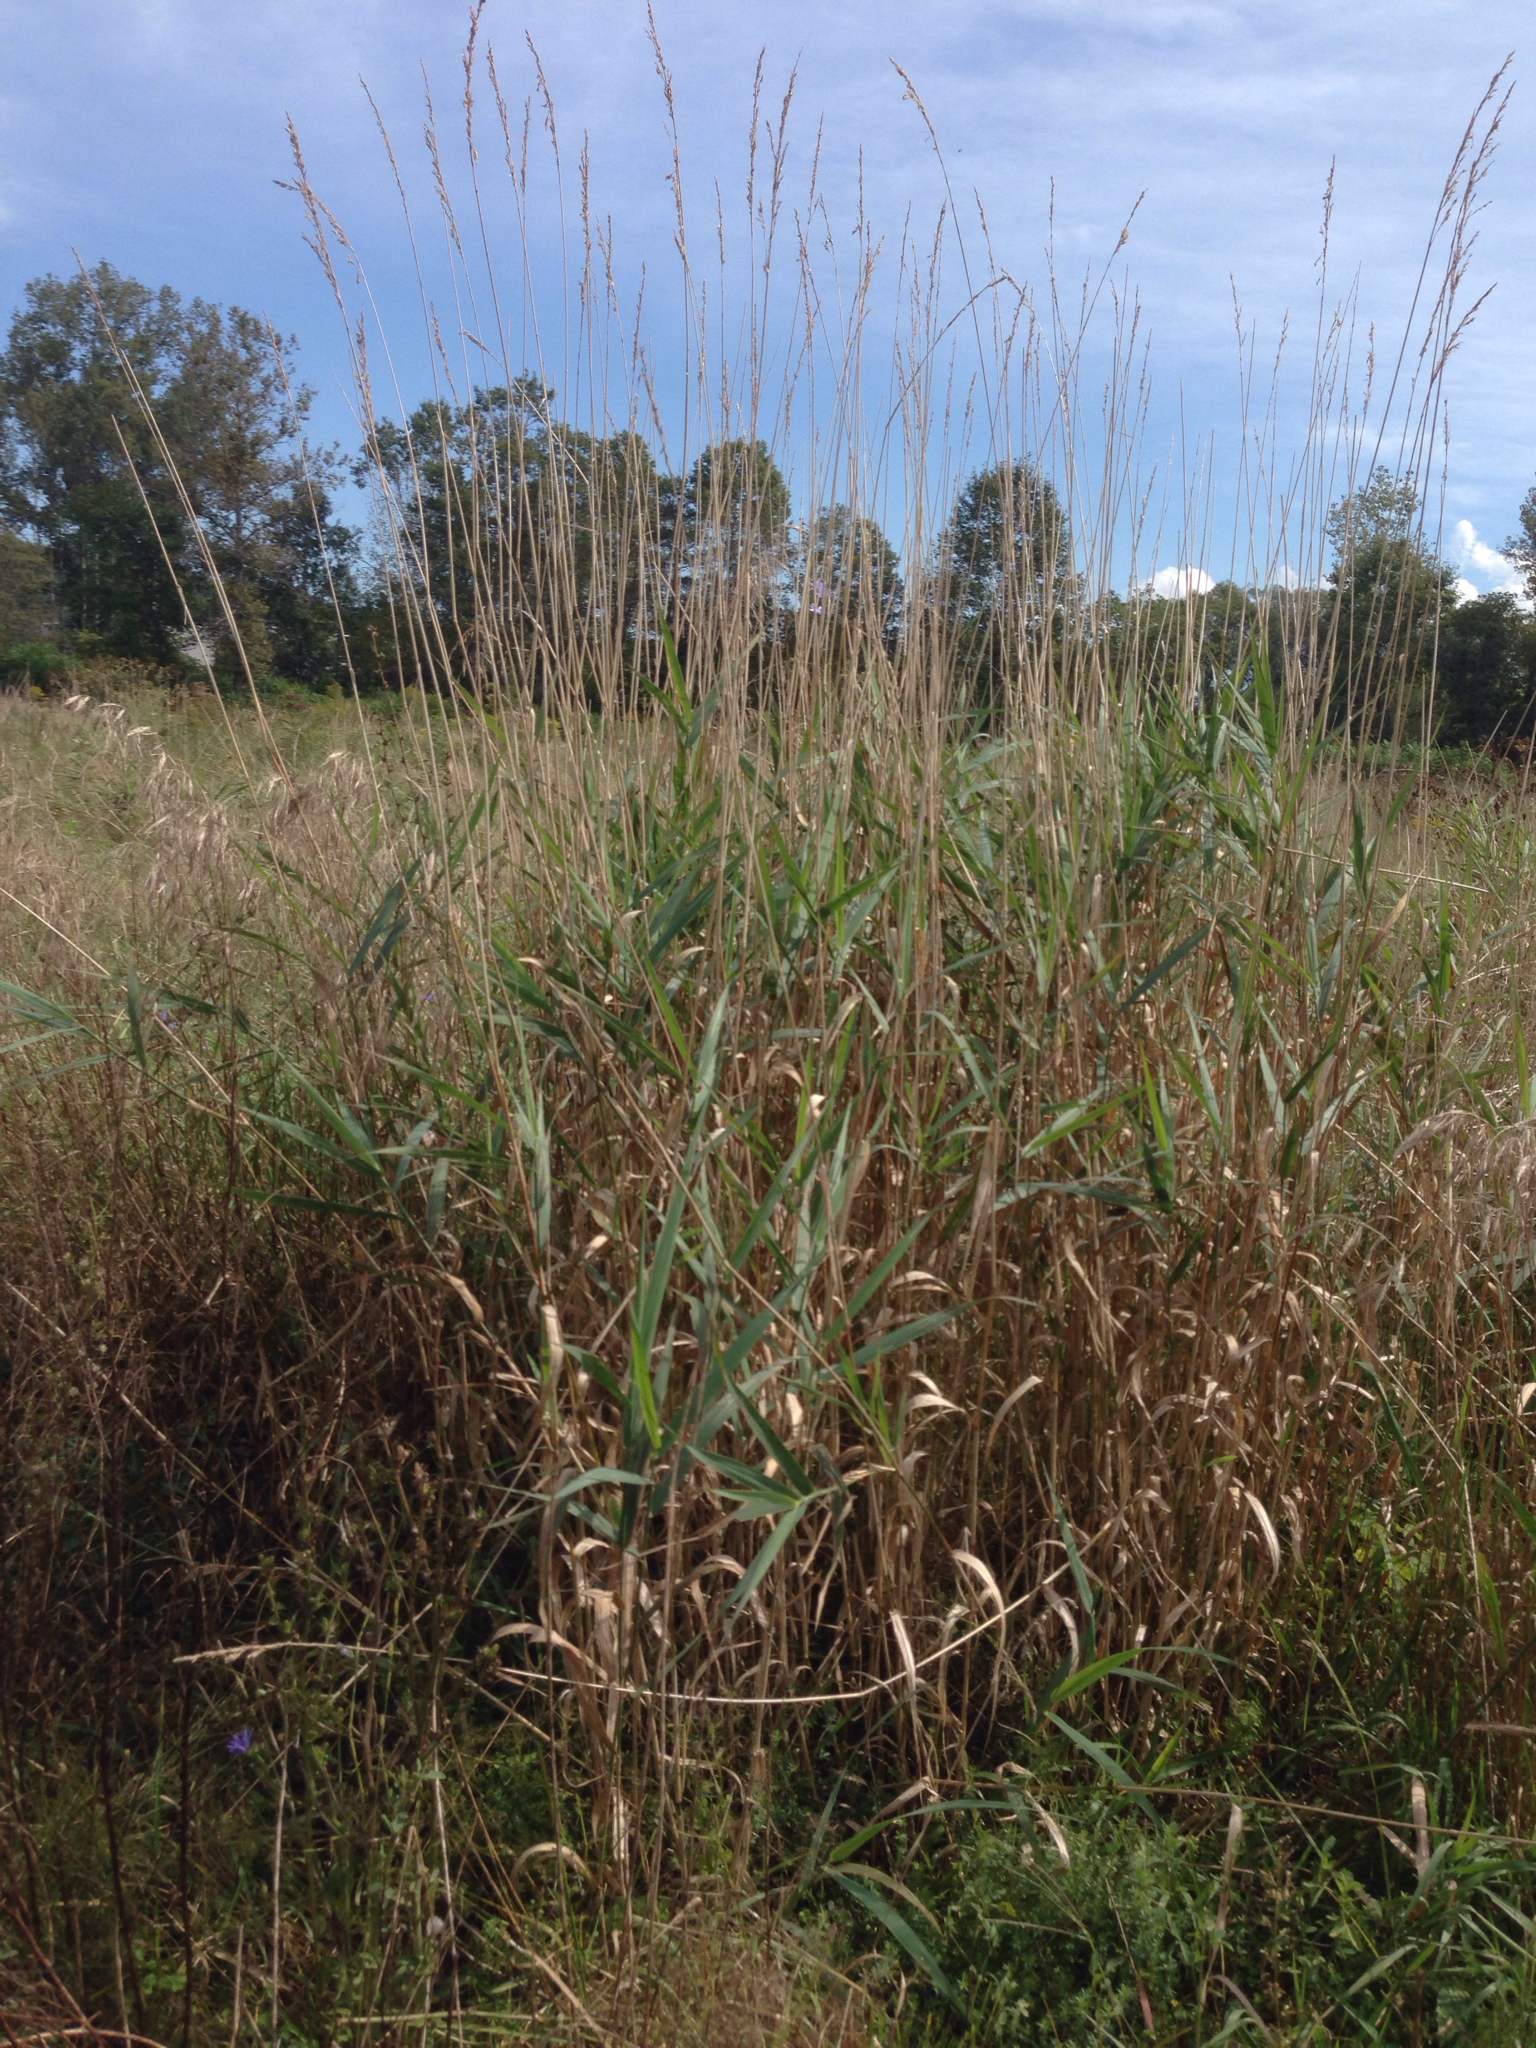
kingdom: Plantae
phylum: Tracheophyta
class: Liliopsida
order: Poales
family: Poaceae
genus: Phalaris
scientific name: Phalaris arundinacea
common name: Reed canary-grass
